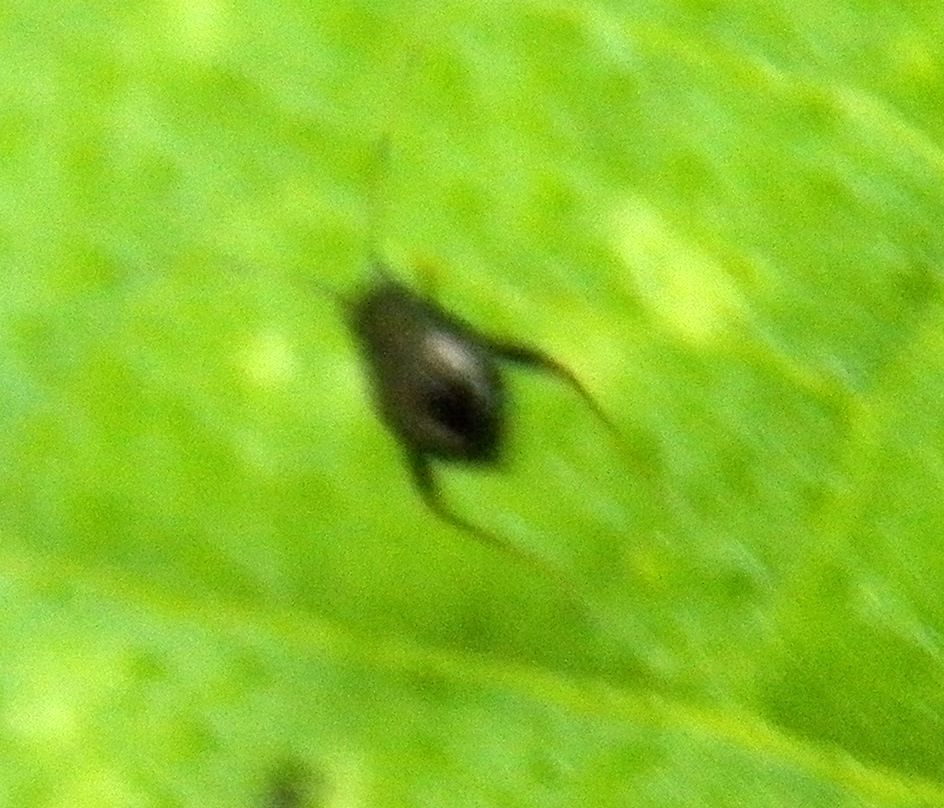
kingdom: Animalia
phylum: Arthropoda
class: Insecta
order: Hemiptera
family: Miridae
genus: Microtechnites
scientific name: Microtechnites bractatus
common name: Garden fleahopper
